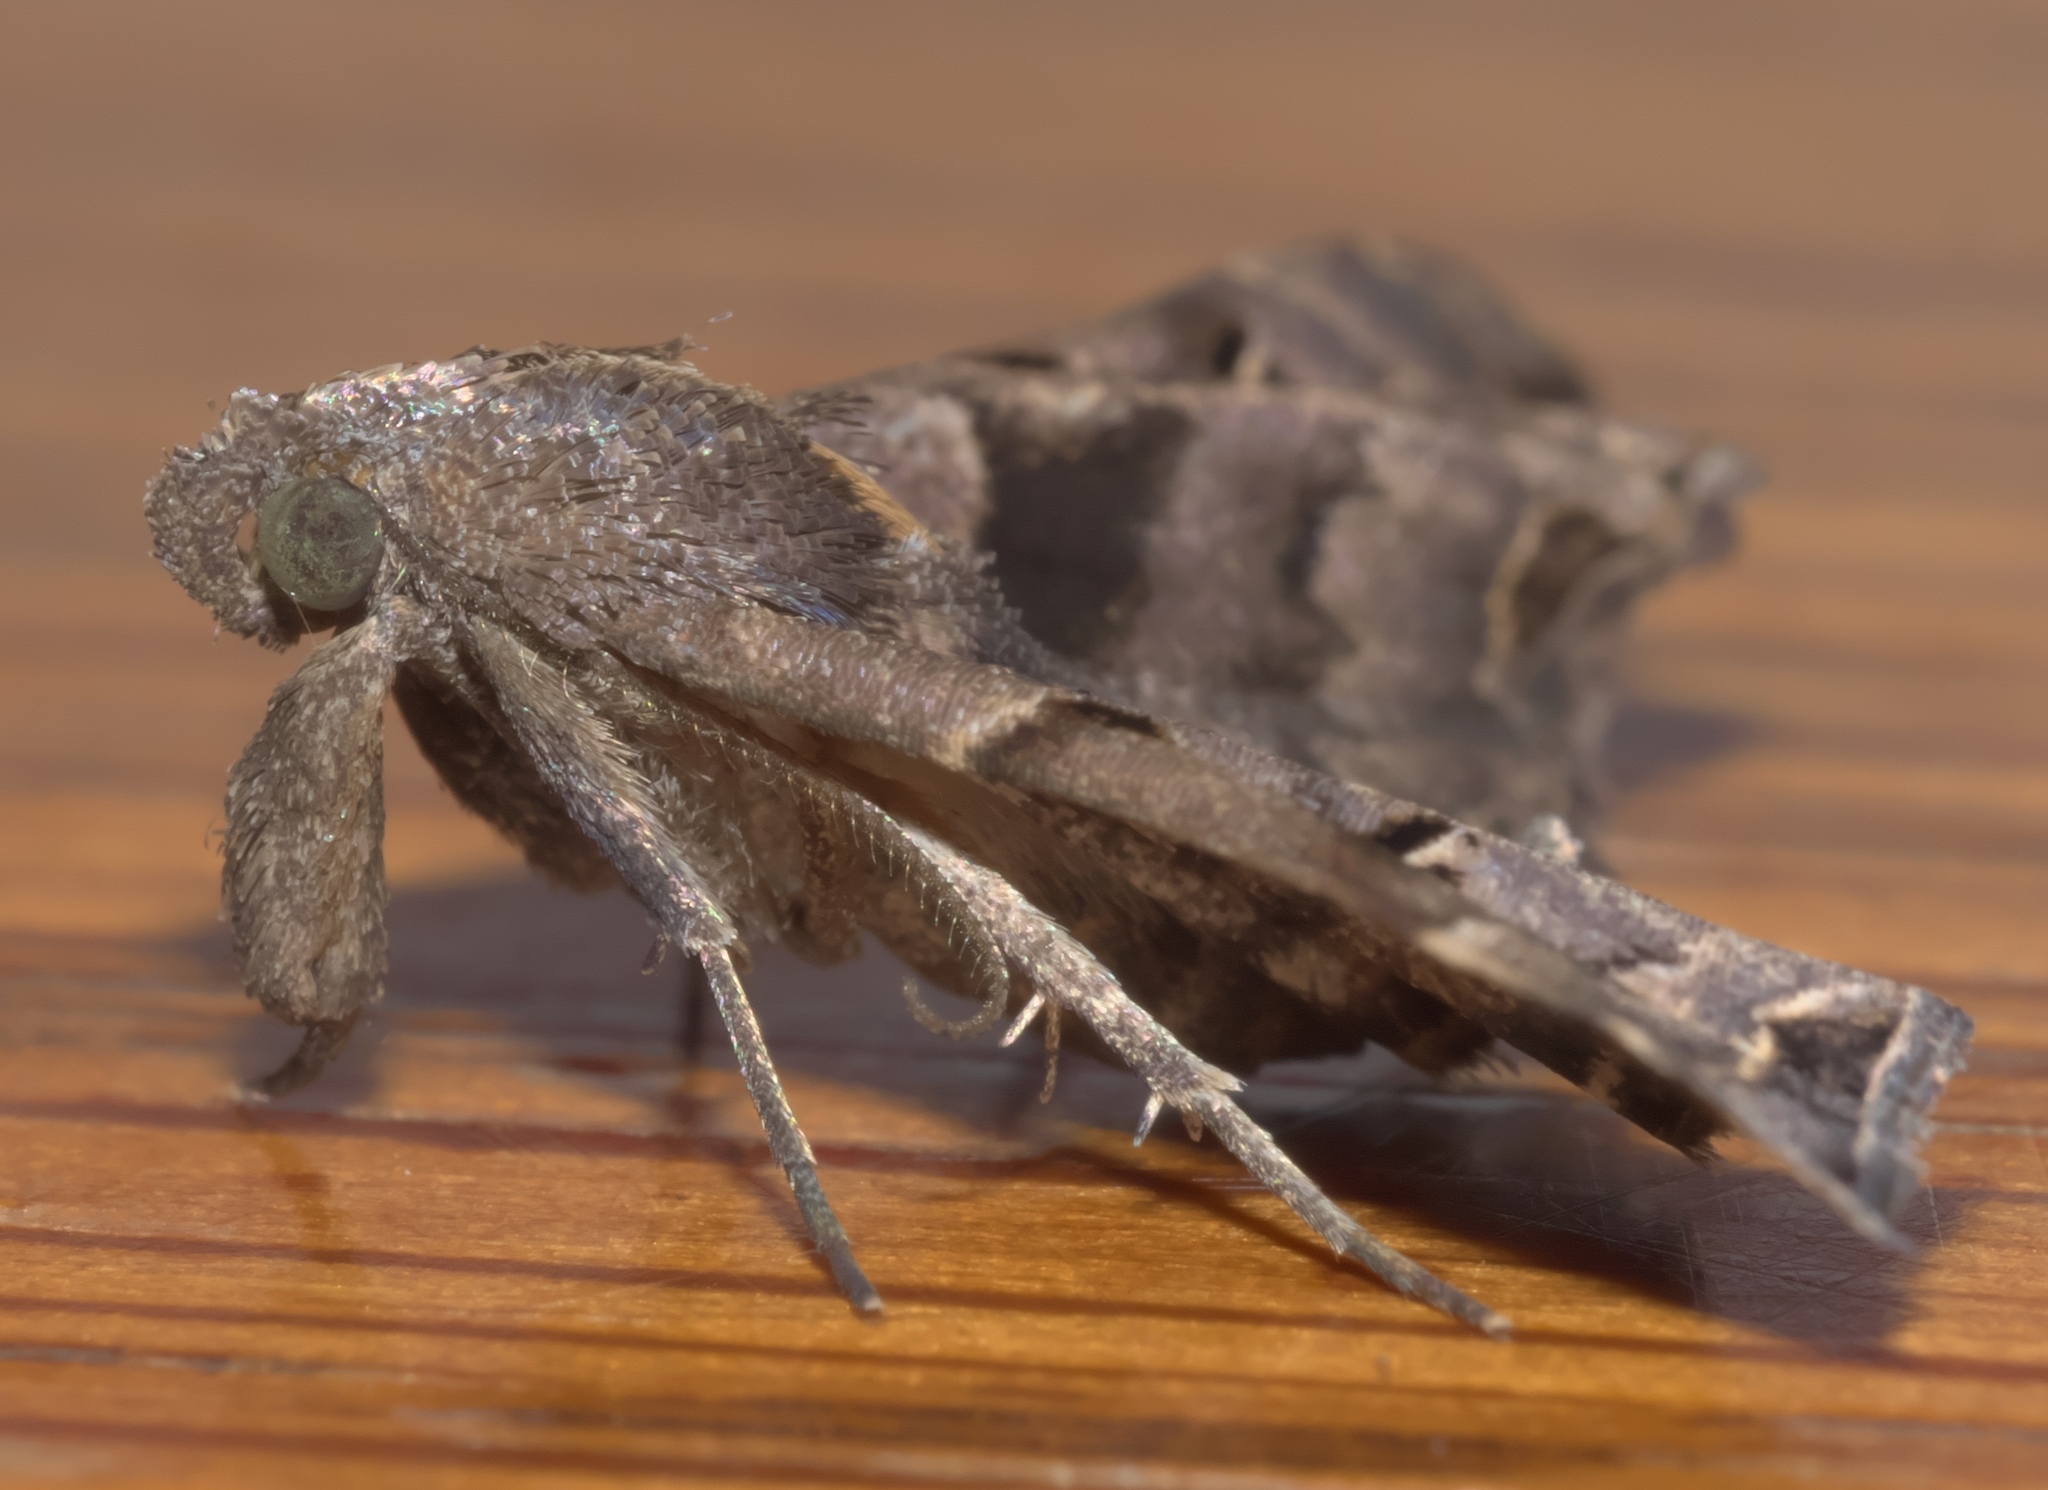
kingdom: Animalia
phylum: Arthropoda
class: Insecta
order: Lepidoptera
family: Erebidae
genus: Palthis
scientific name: Palthis asopialis
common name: Faint-spotted palthis moth
